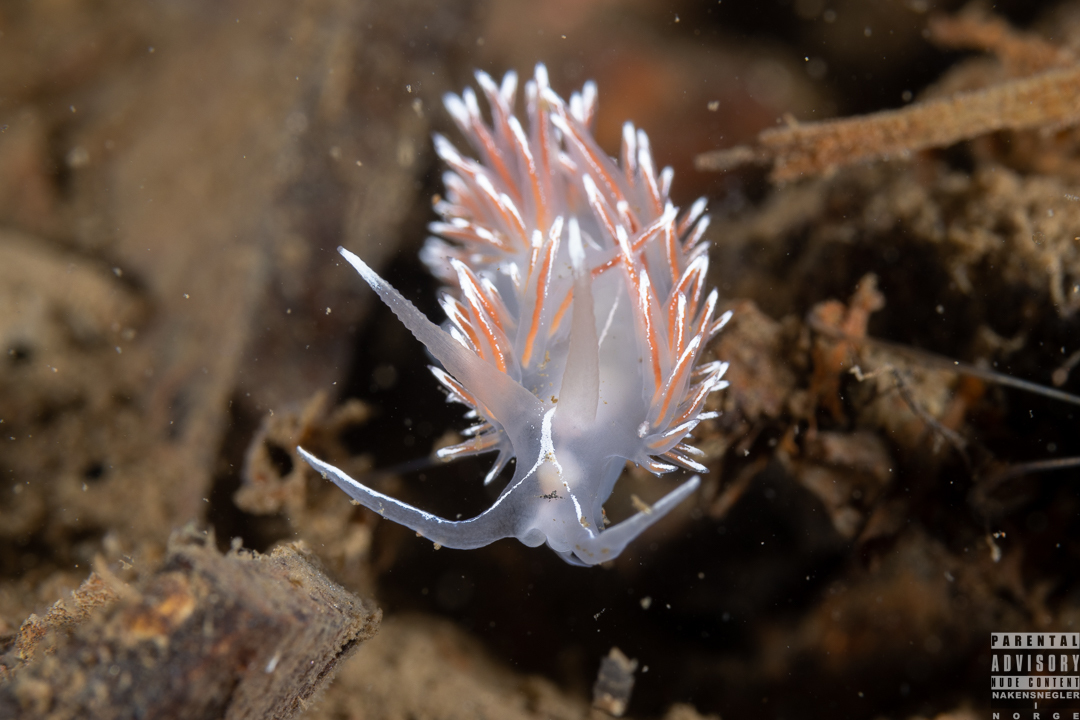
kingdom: Animalia
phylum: Mollusca
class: Gastropoda
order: Nudibranchia
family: Coryphellidae
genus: Coryphella
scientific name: Coryphella lineata
